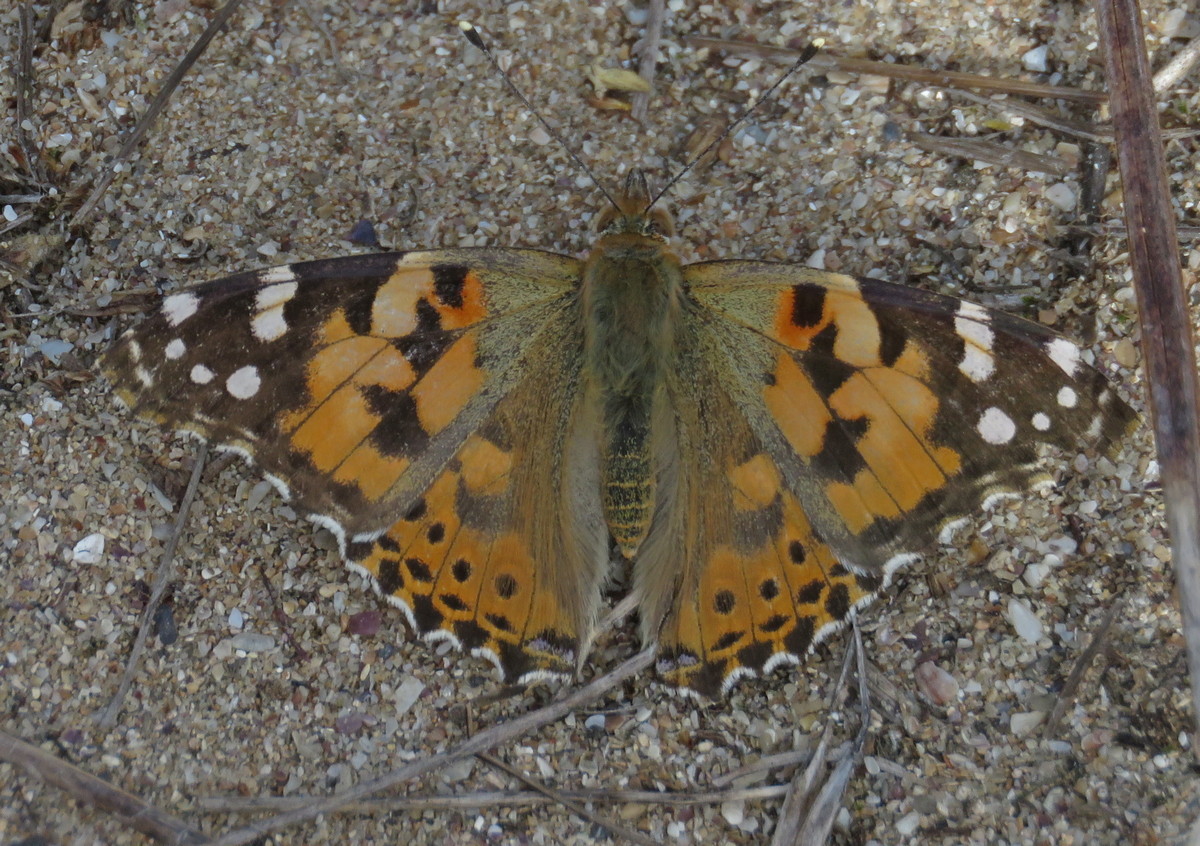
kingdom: Animalia
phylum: Arthropoda
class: Insecta
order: Lepidoptera
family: Nymphalidae
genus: Vanessa
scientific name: Vanessa cardui
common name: Painted lady
